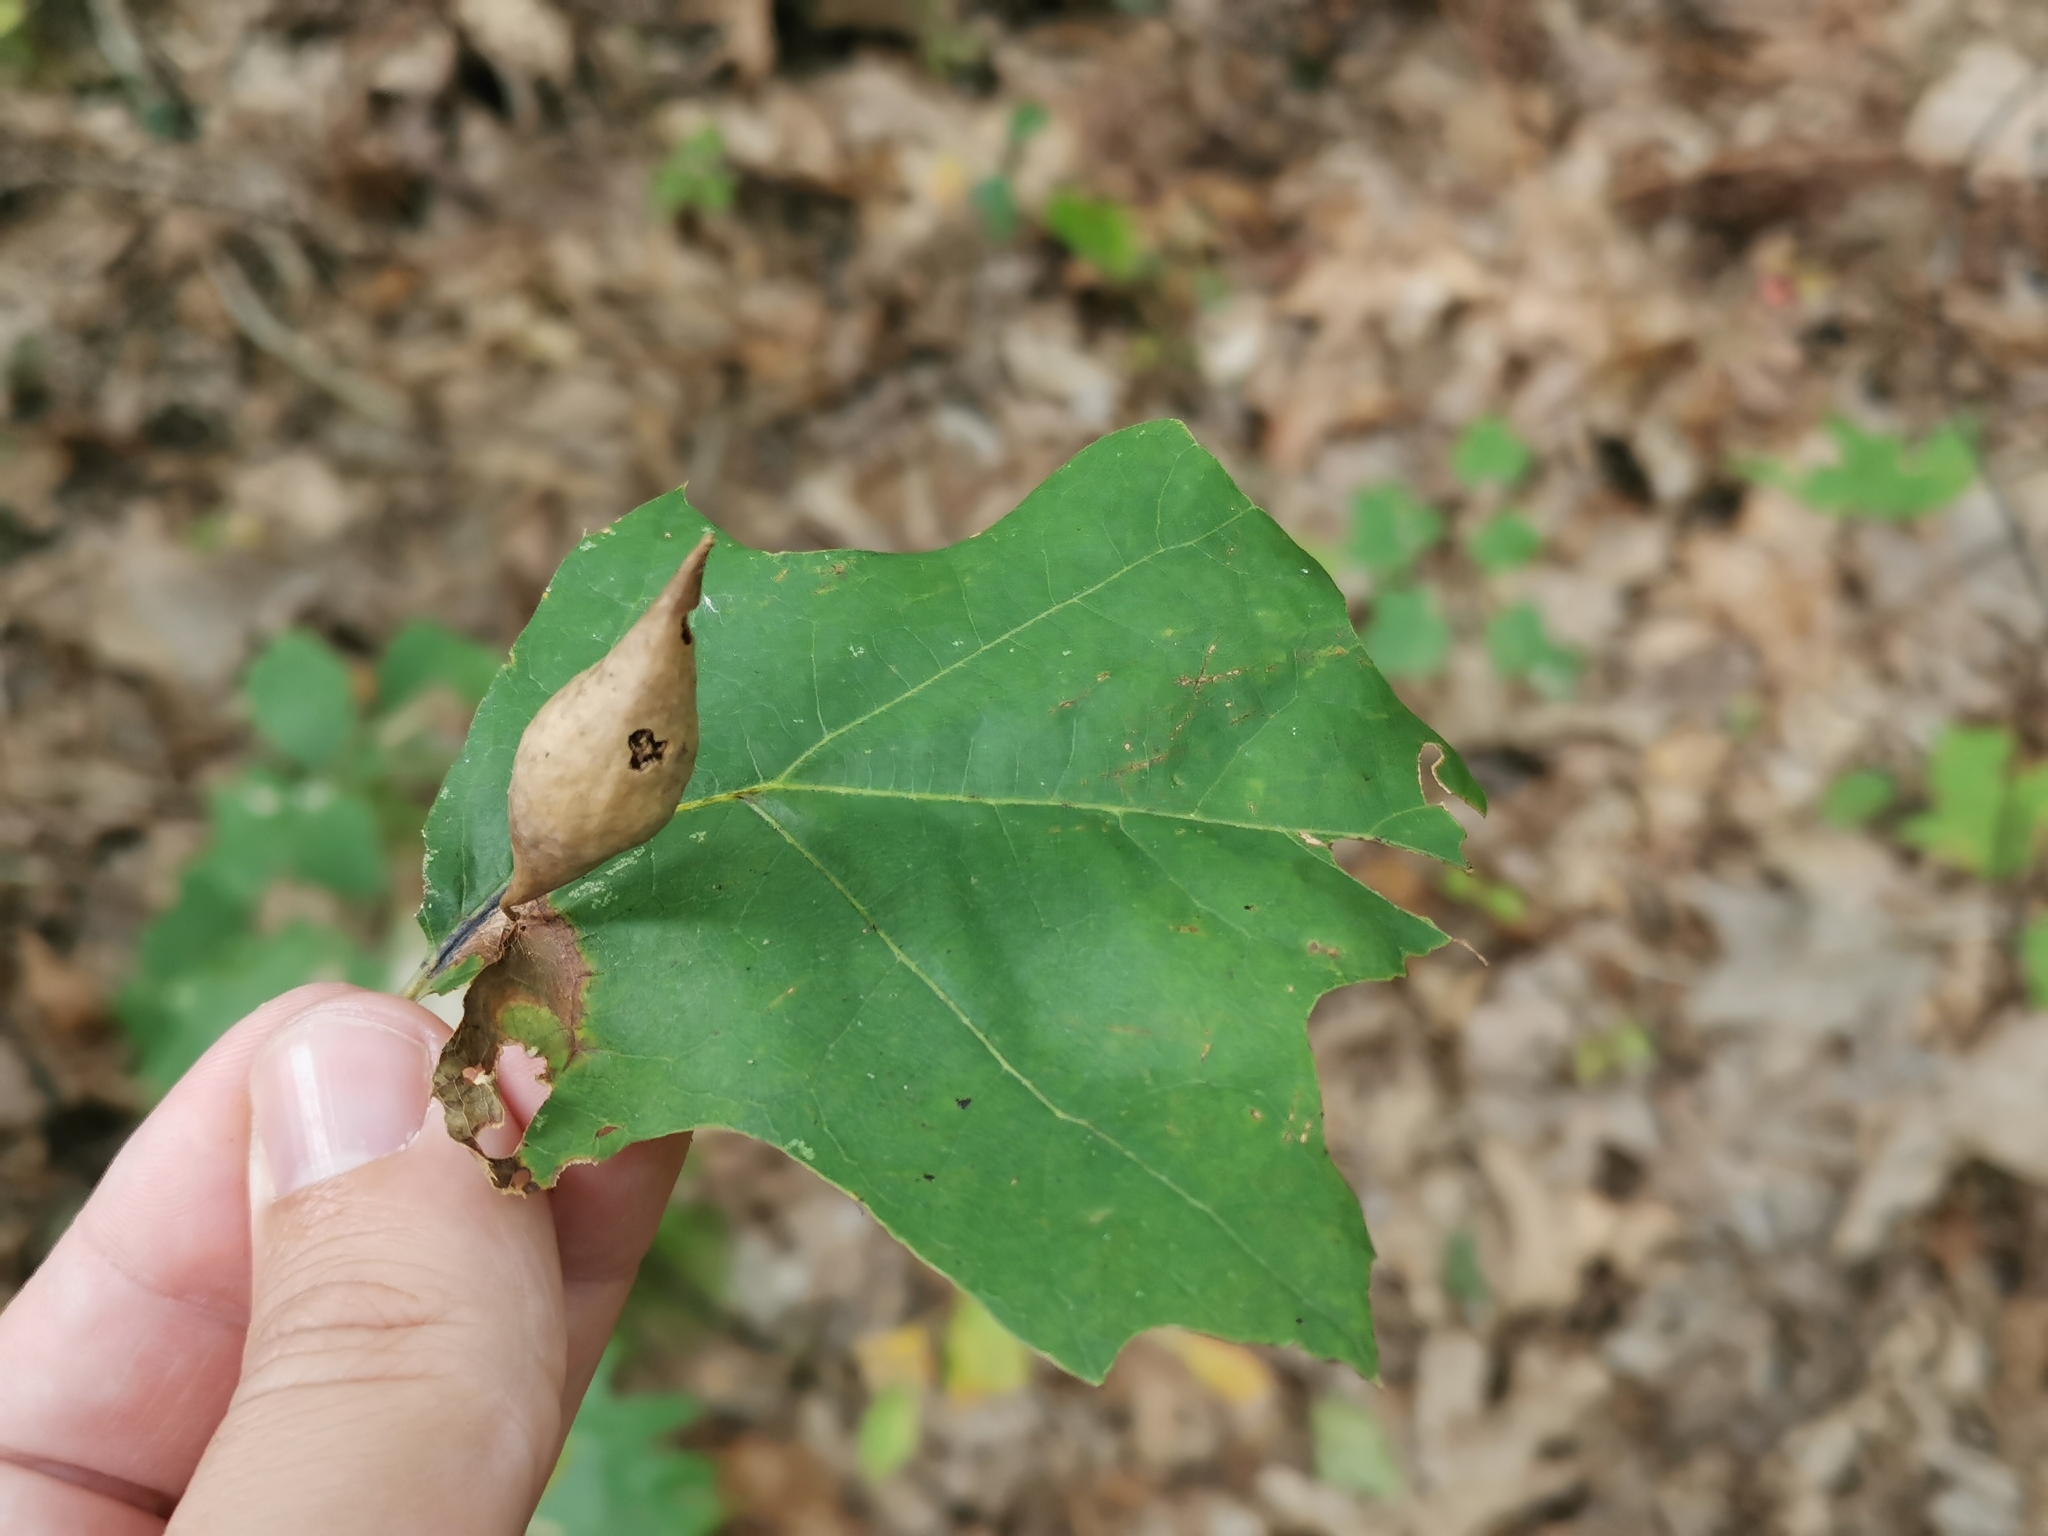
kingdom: Animalia
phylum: Arthropoda
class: Insecta
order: Hymenoptera
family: Cynipidae
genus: Amphibolips
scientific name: Amphibolips
